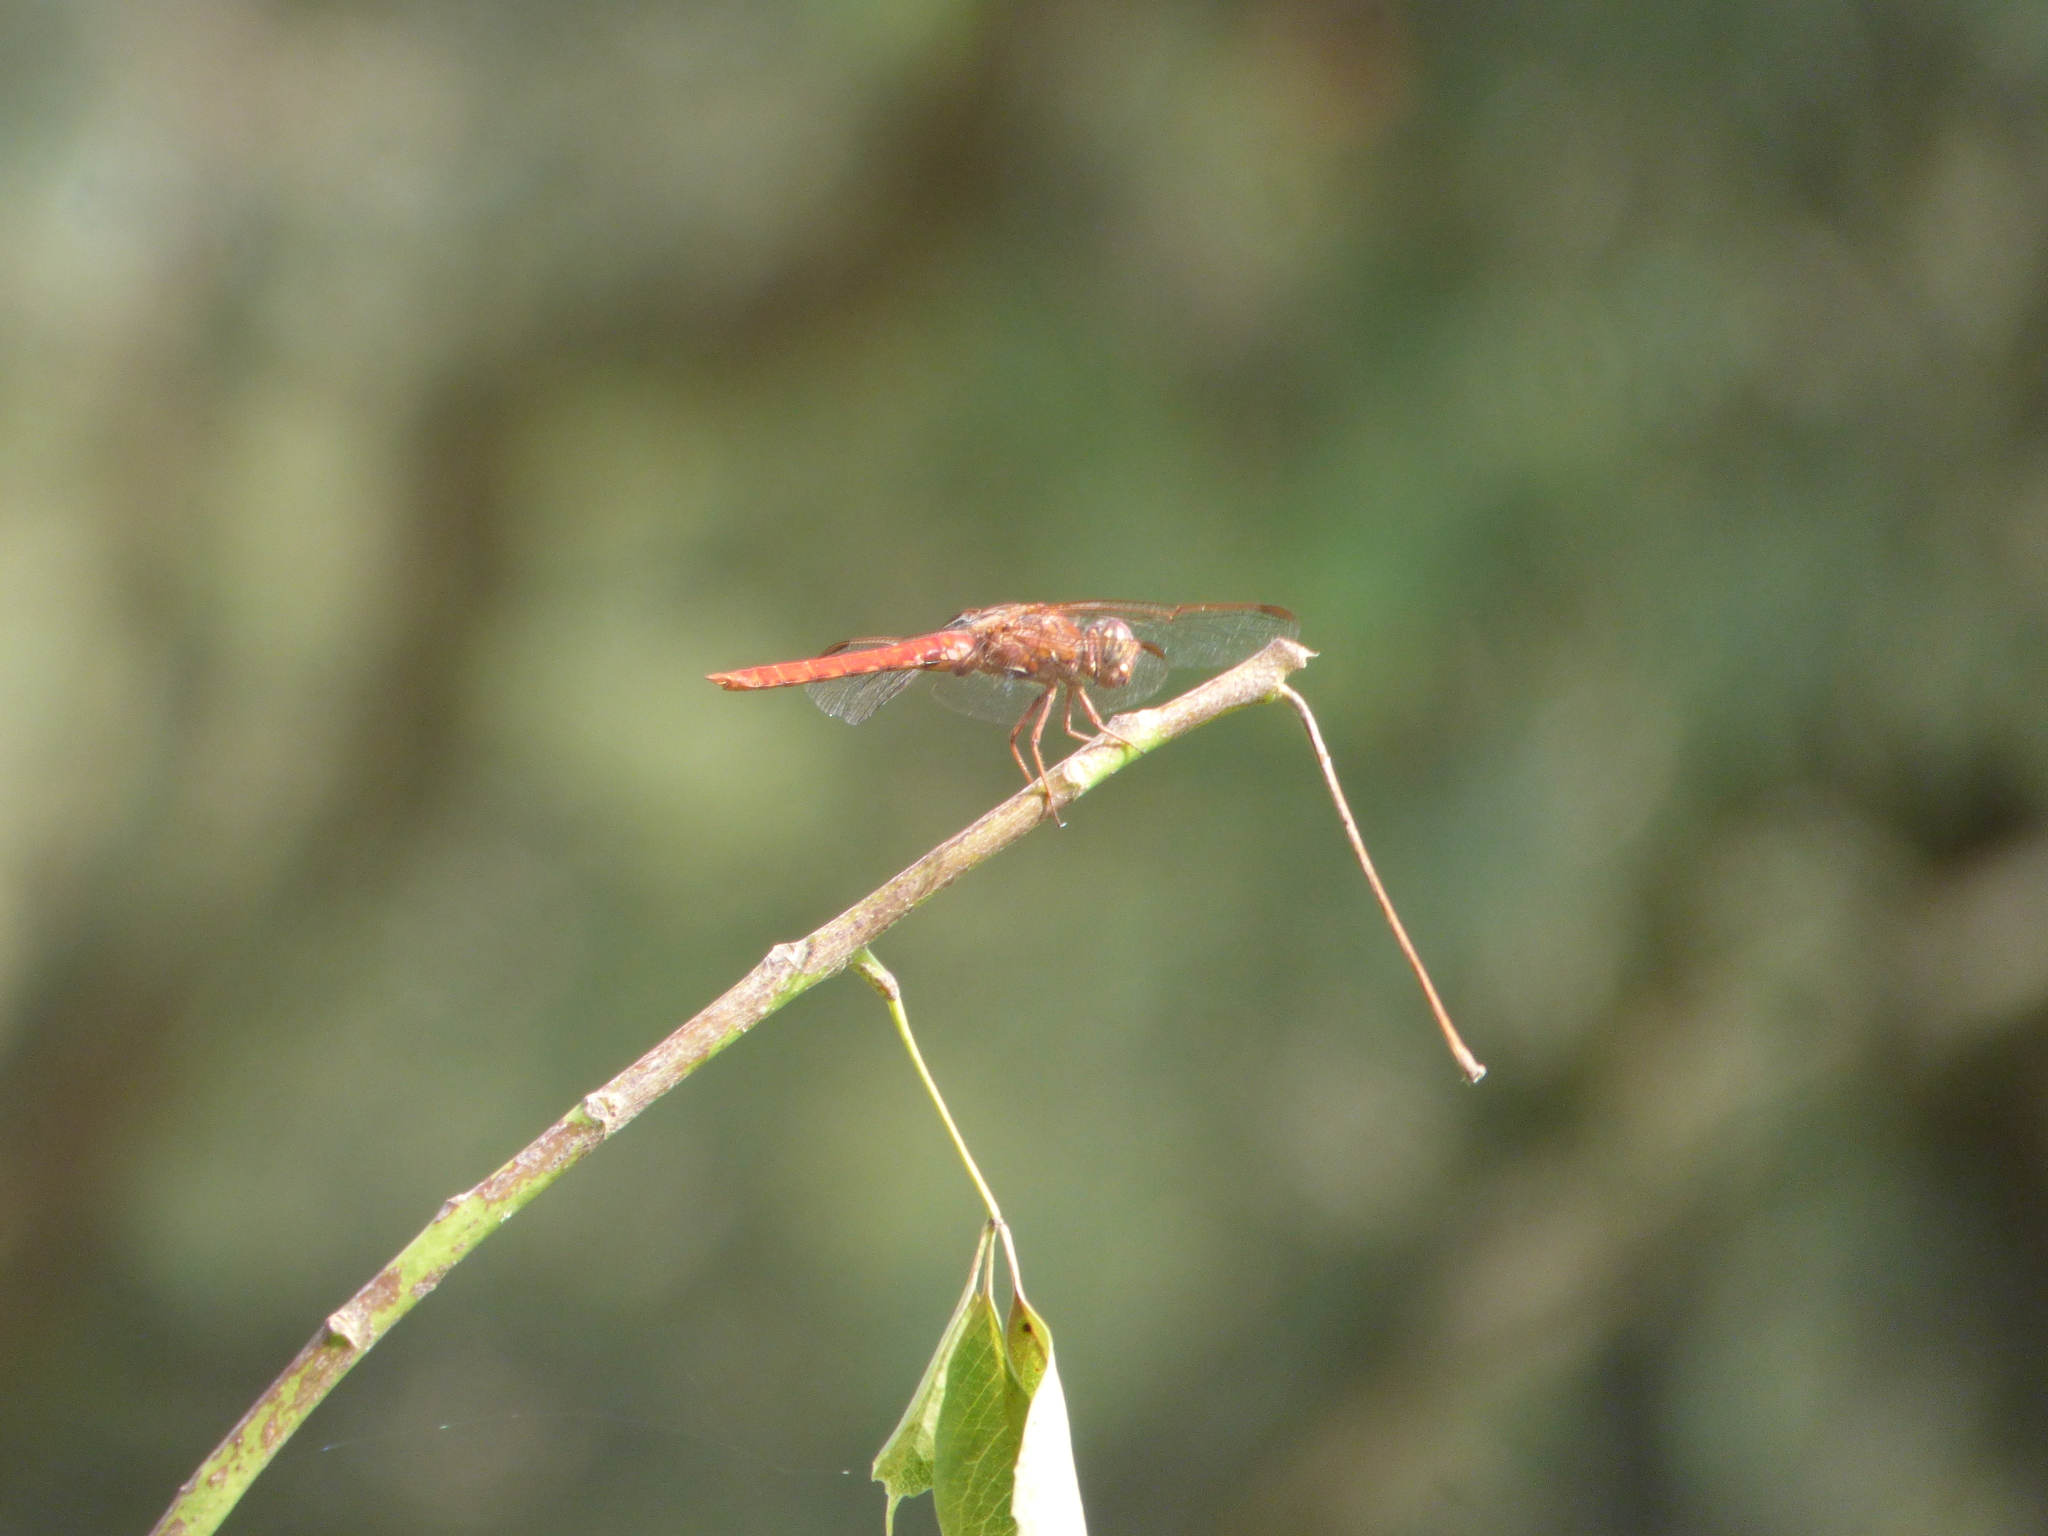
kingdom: Animalia
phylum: Arthropoda
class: Insecta
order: Odonata
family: Libellulidae
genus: Orthemis
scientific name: Orthemis nodiplaga
